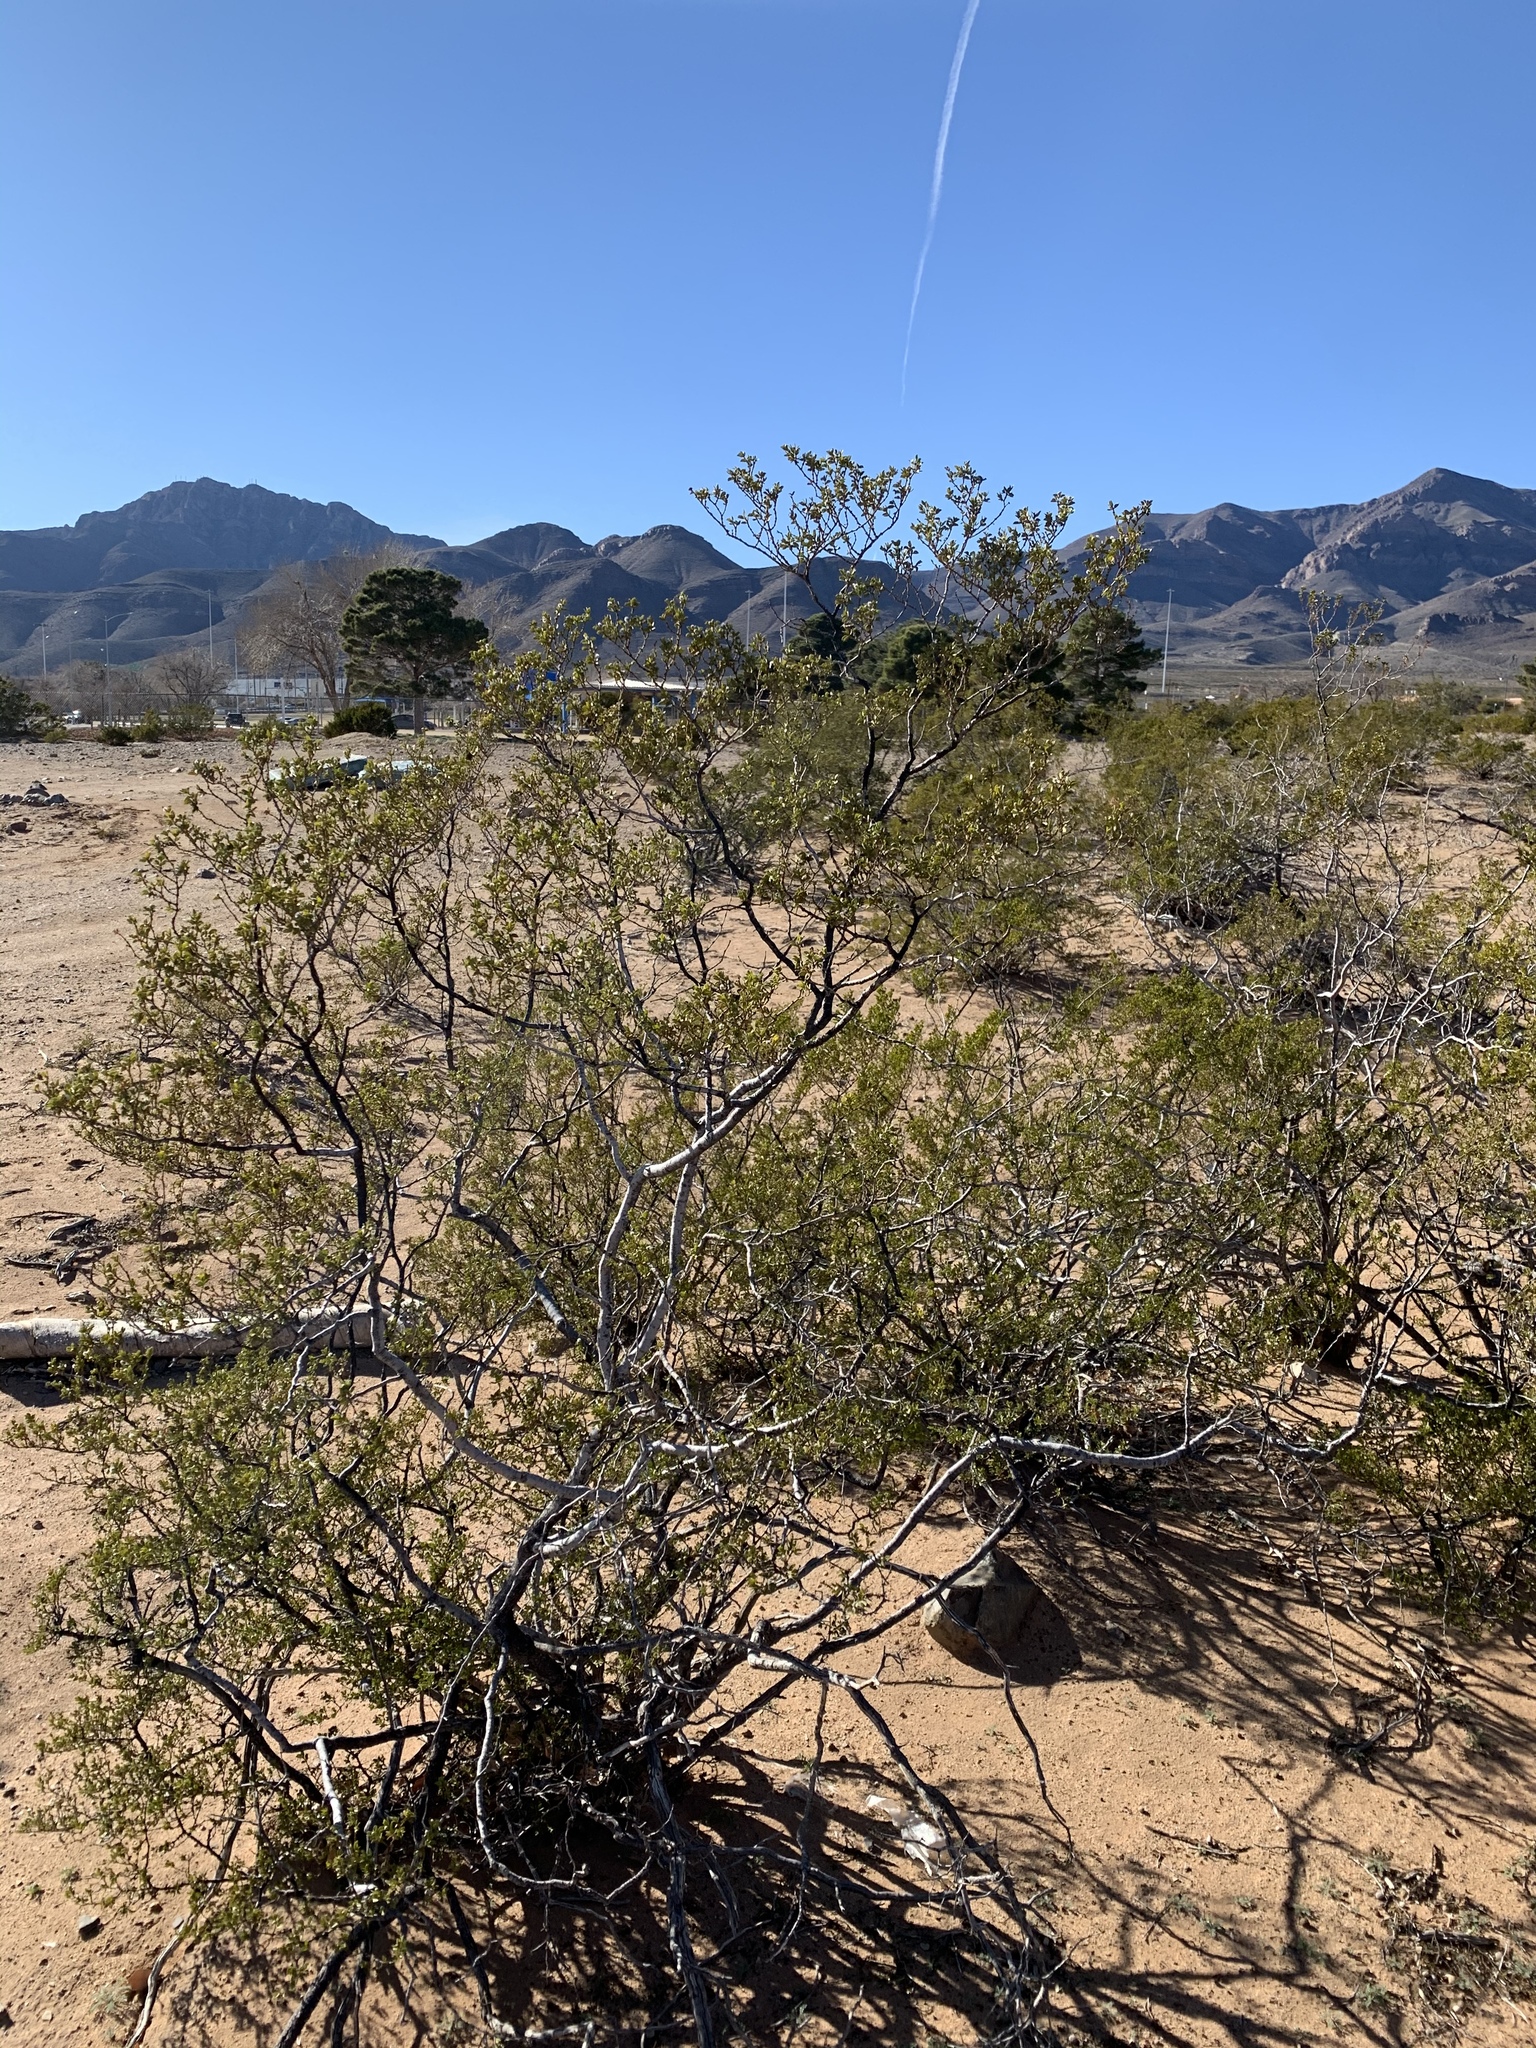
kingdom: Plantae
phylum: Tracheophyta
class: Magnoliopsida
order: Zygophyllales
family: Zygophyllaceae
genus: Larrea
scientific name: Larrea tridentata
